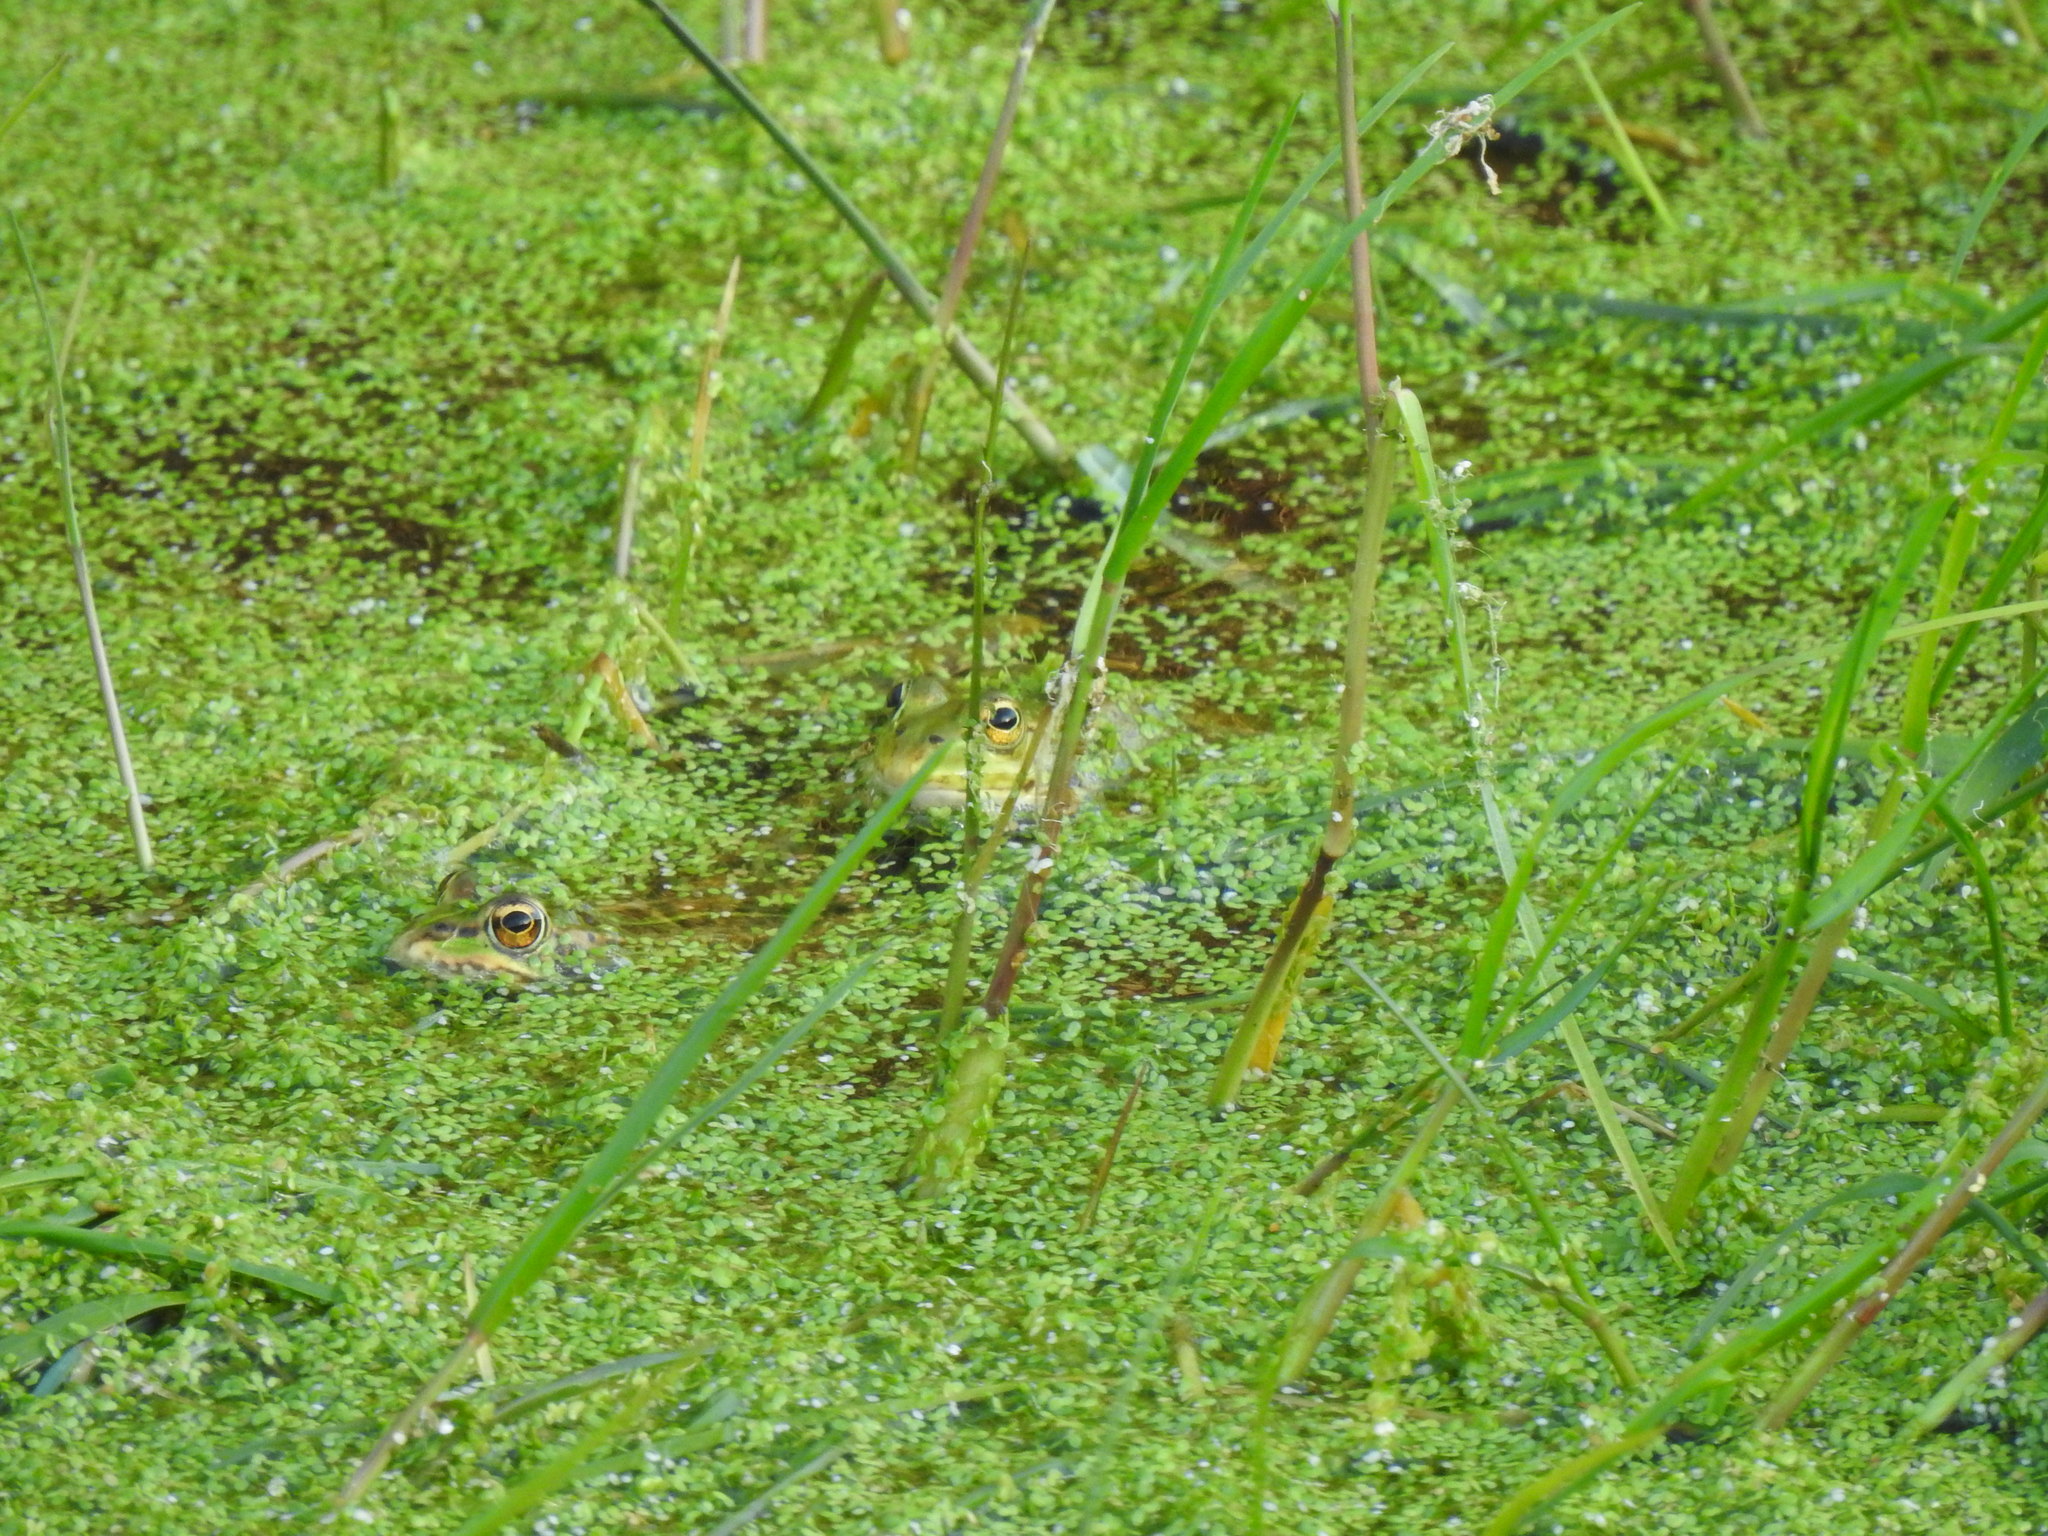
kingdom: Animalia
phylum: Chordata
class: Amphibia
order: Anura
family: Ranidae
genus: Pelophylax
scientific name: Pelophylax perezi
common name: Perez's frog
